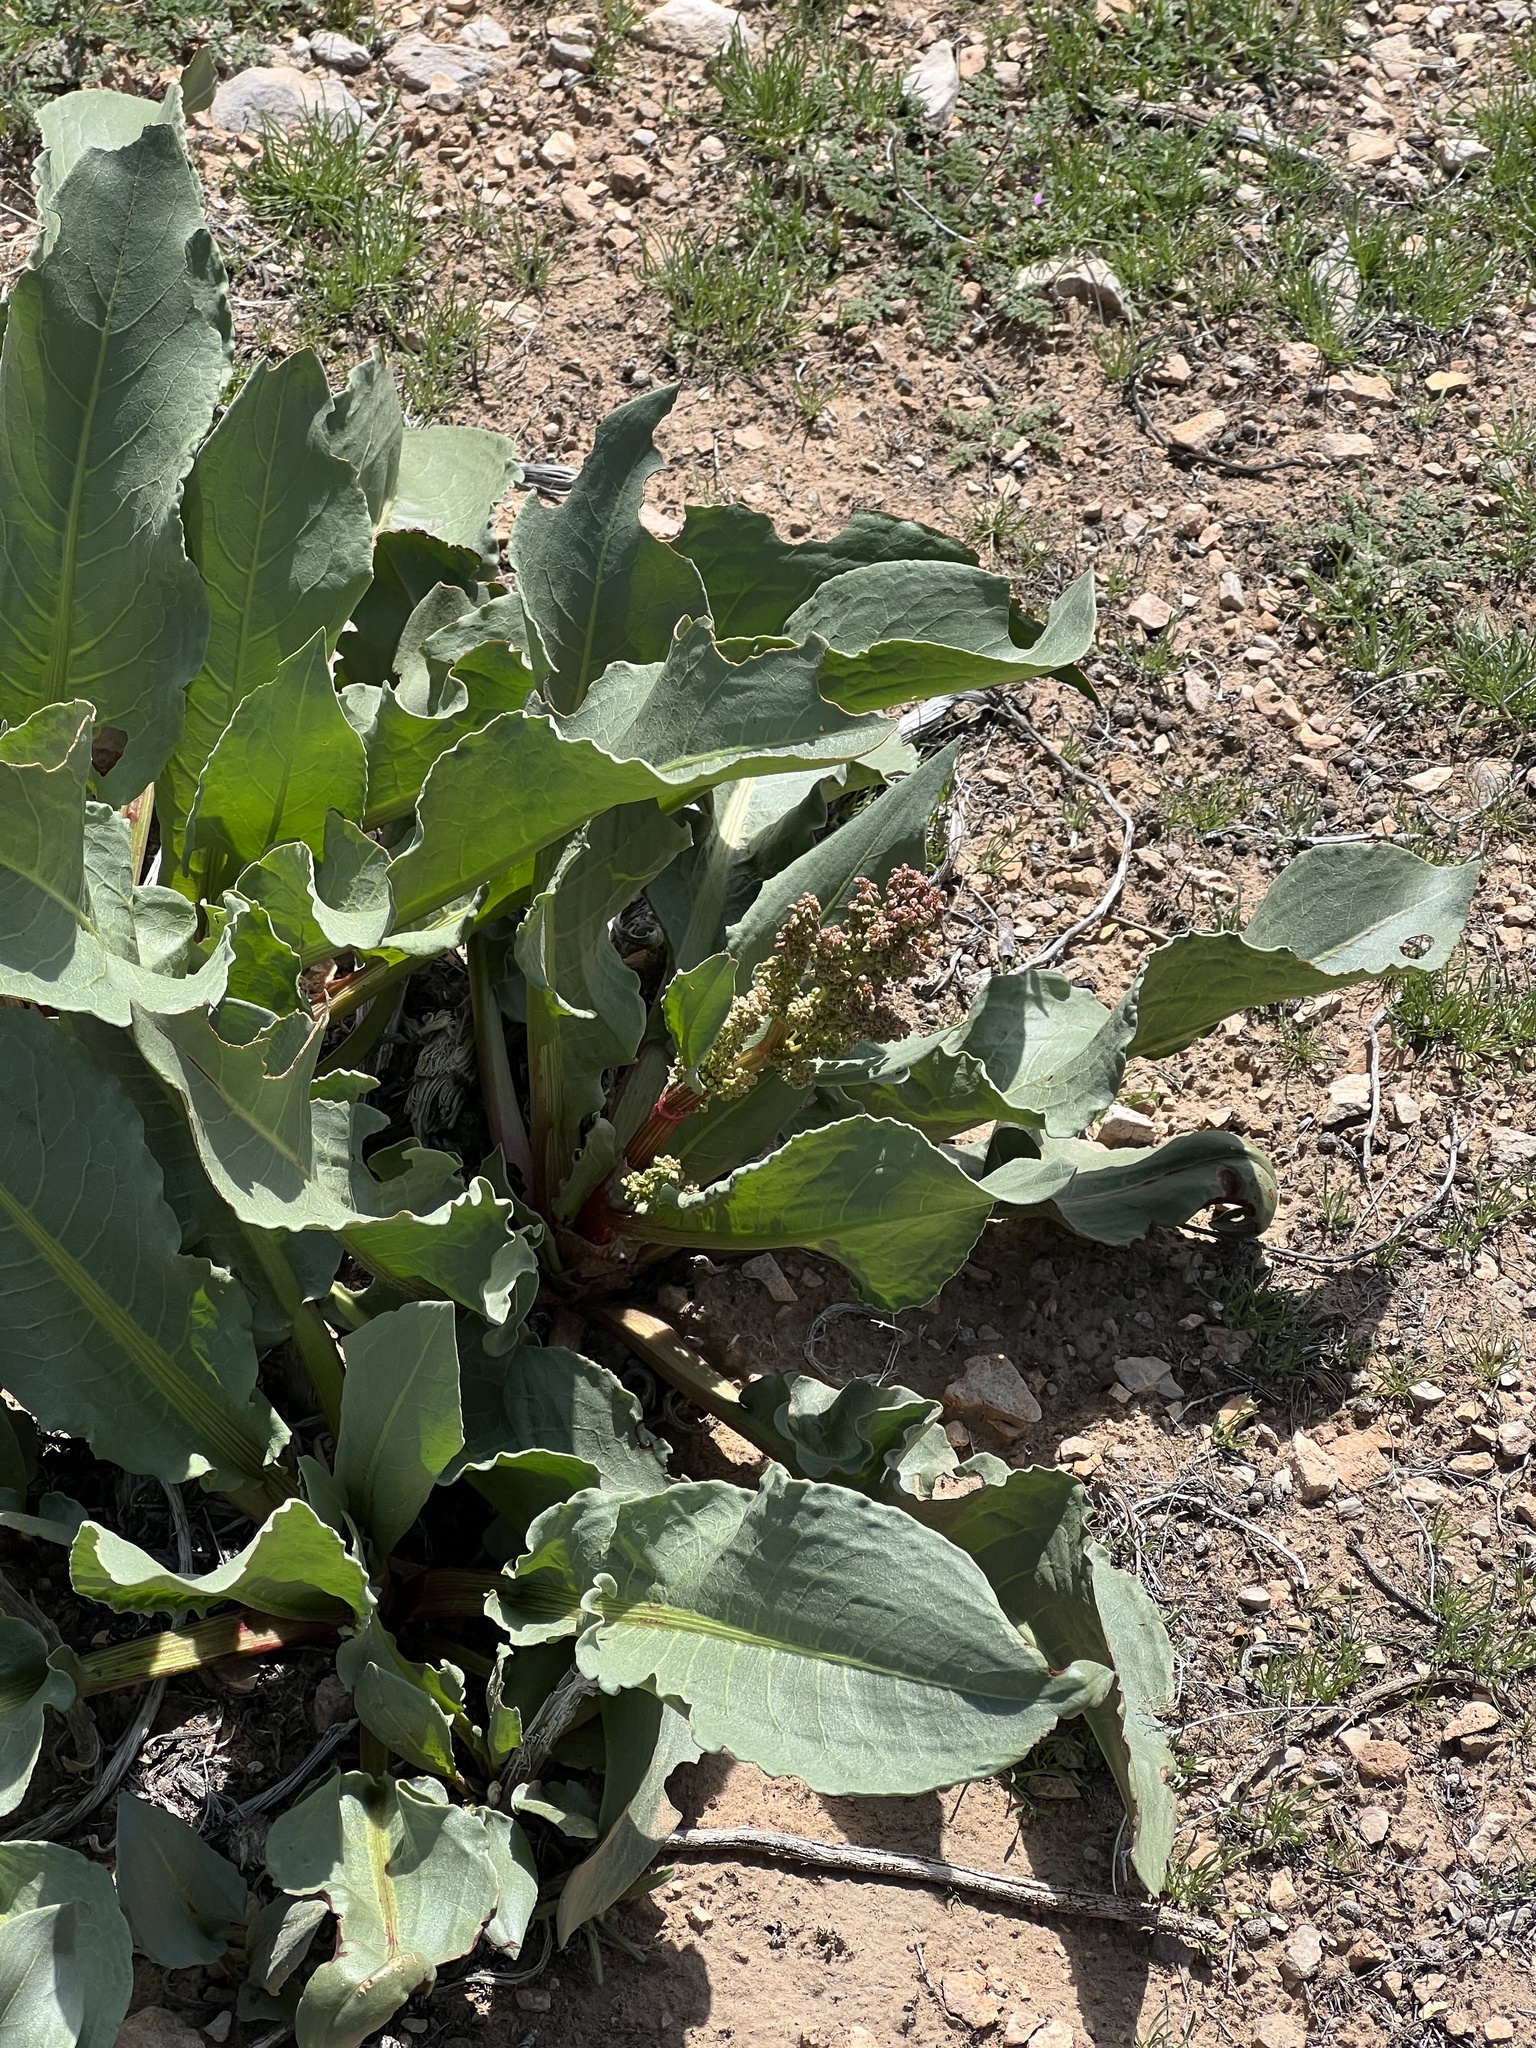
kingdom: Plantae
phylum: Tracheophyta
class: Magnoliopsida
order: Caryophyllales
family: Polygonaceae
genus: Rumex
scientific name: Rumex hymenosepalus
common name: Ganagra
